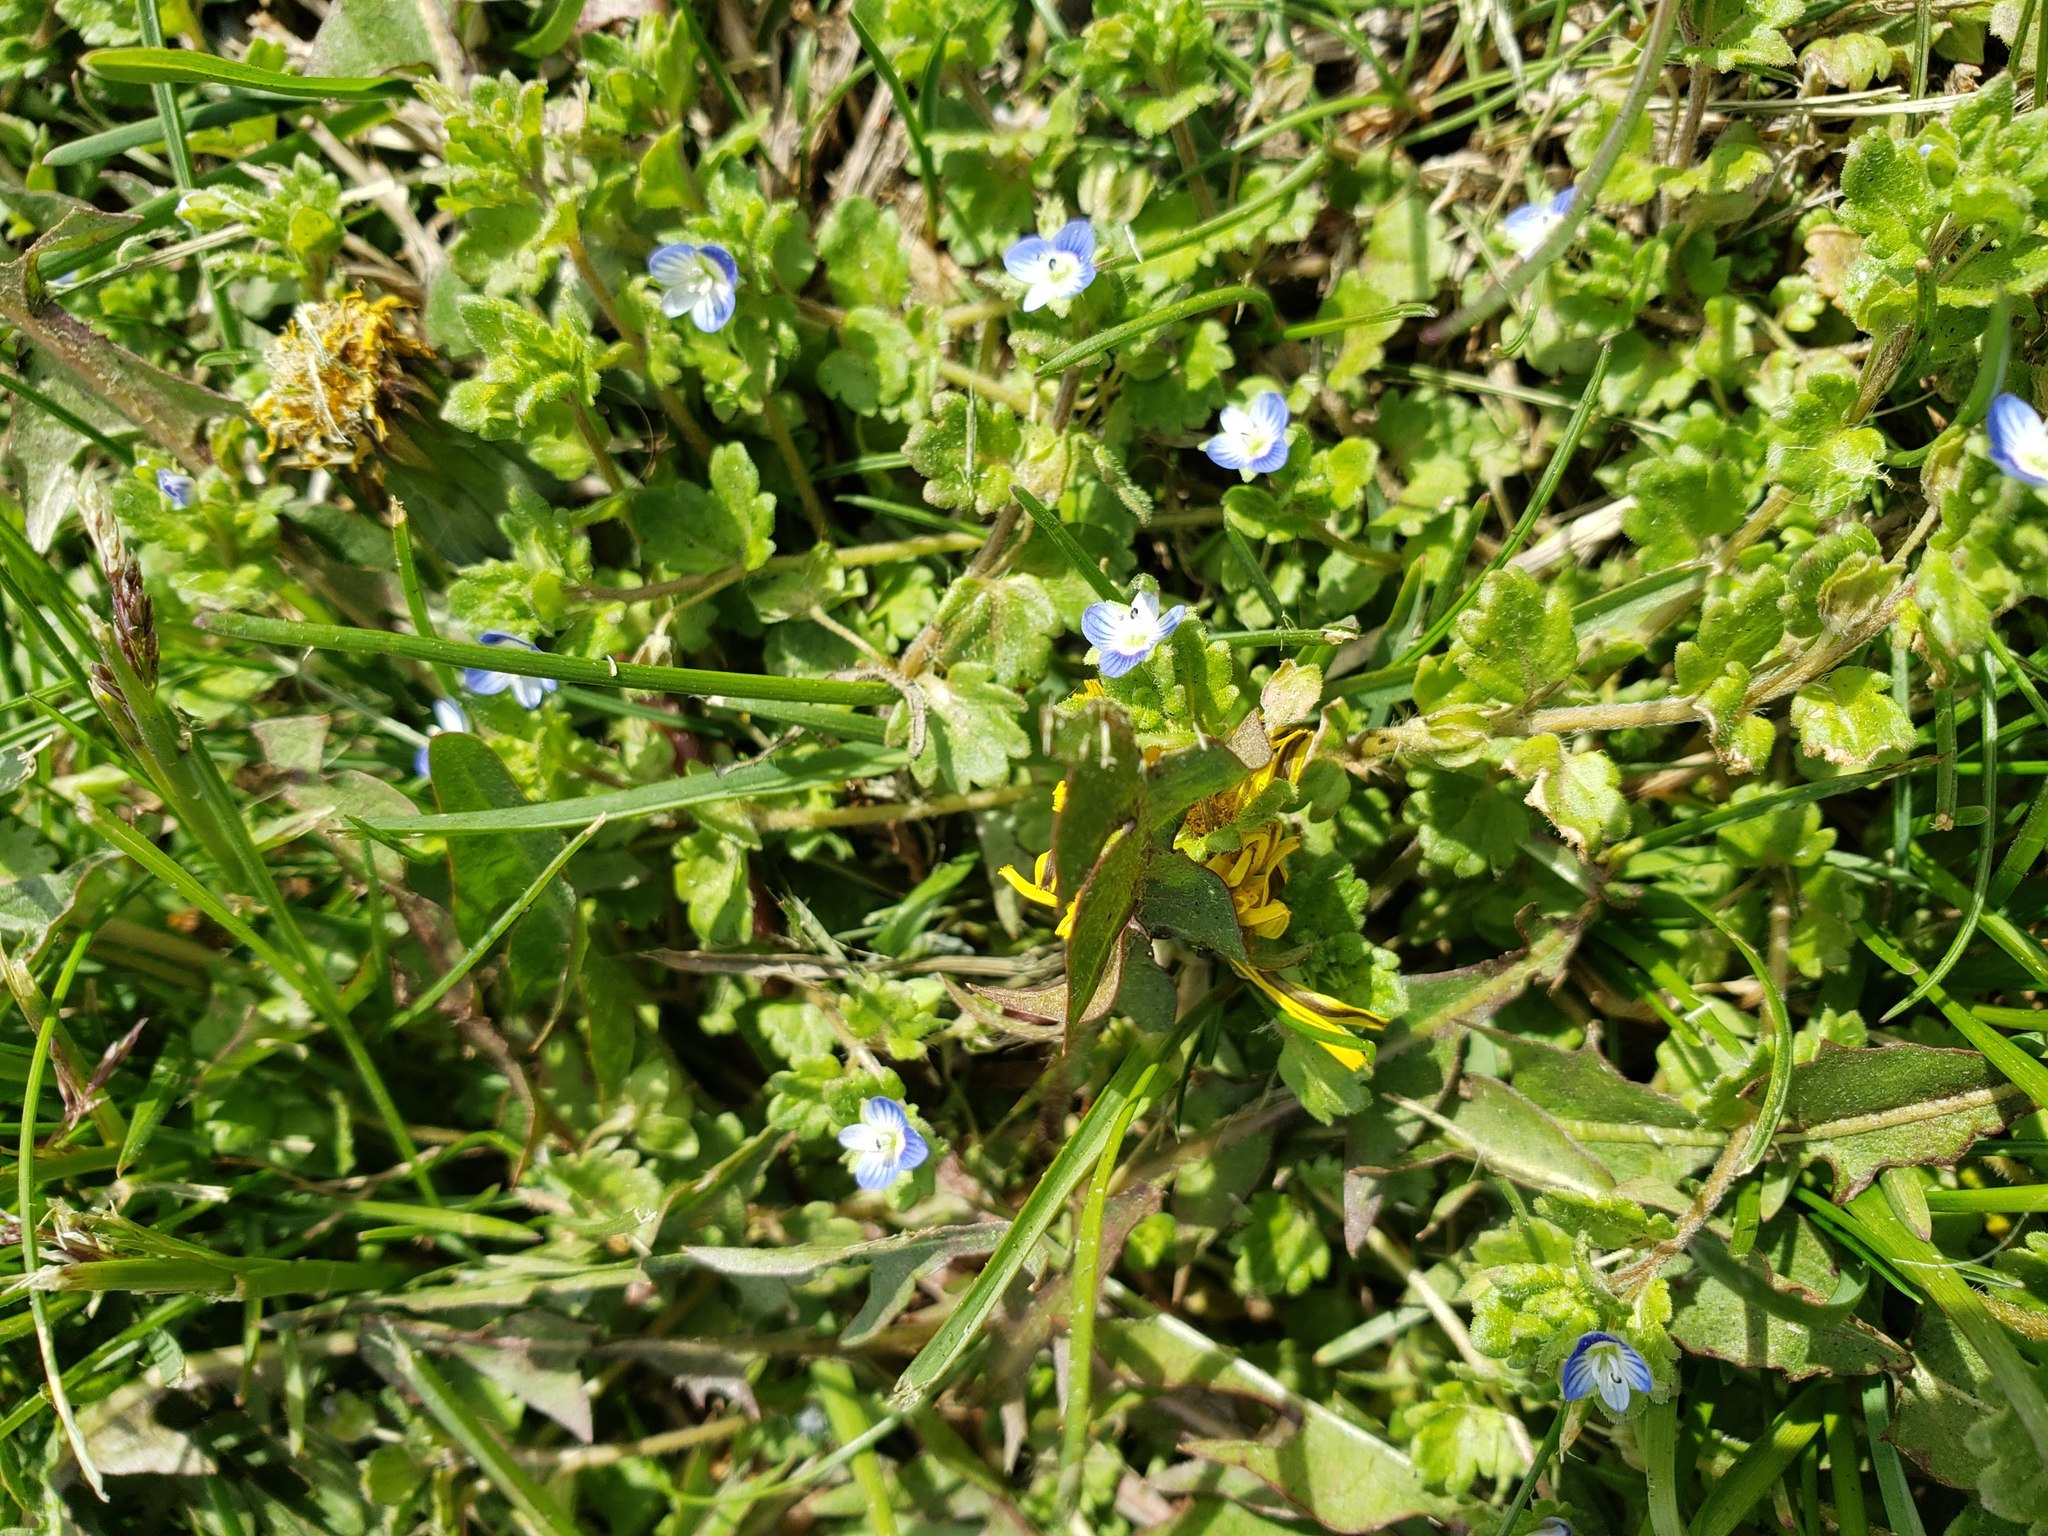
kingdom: Plantae
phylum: Tracheophyta
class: Magnoliopsida
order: Lamiales
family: Plantaginaceae
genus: Veronica
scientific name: Veronica persica
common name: Common field-speedwell
